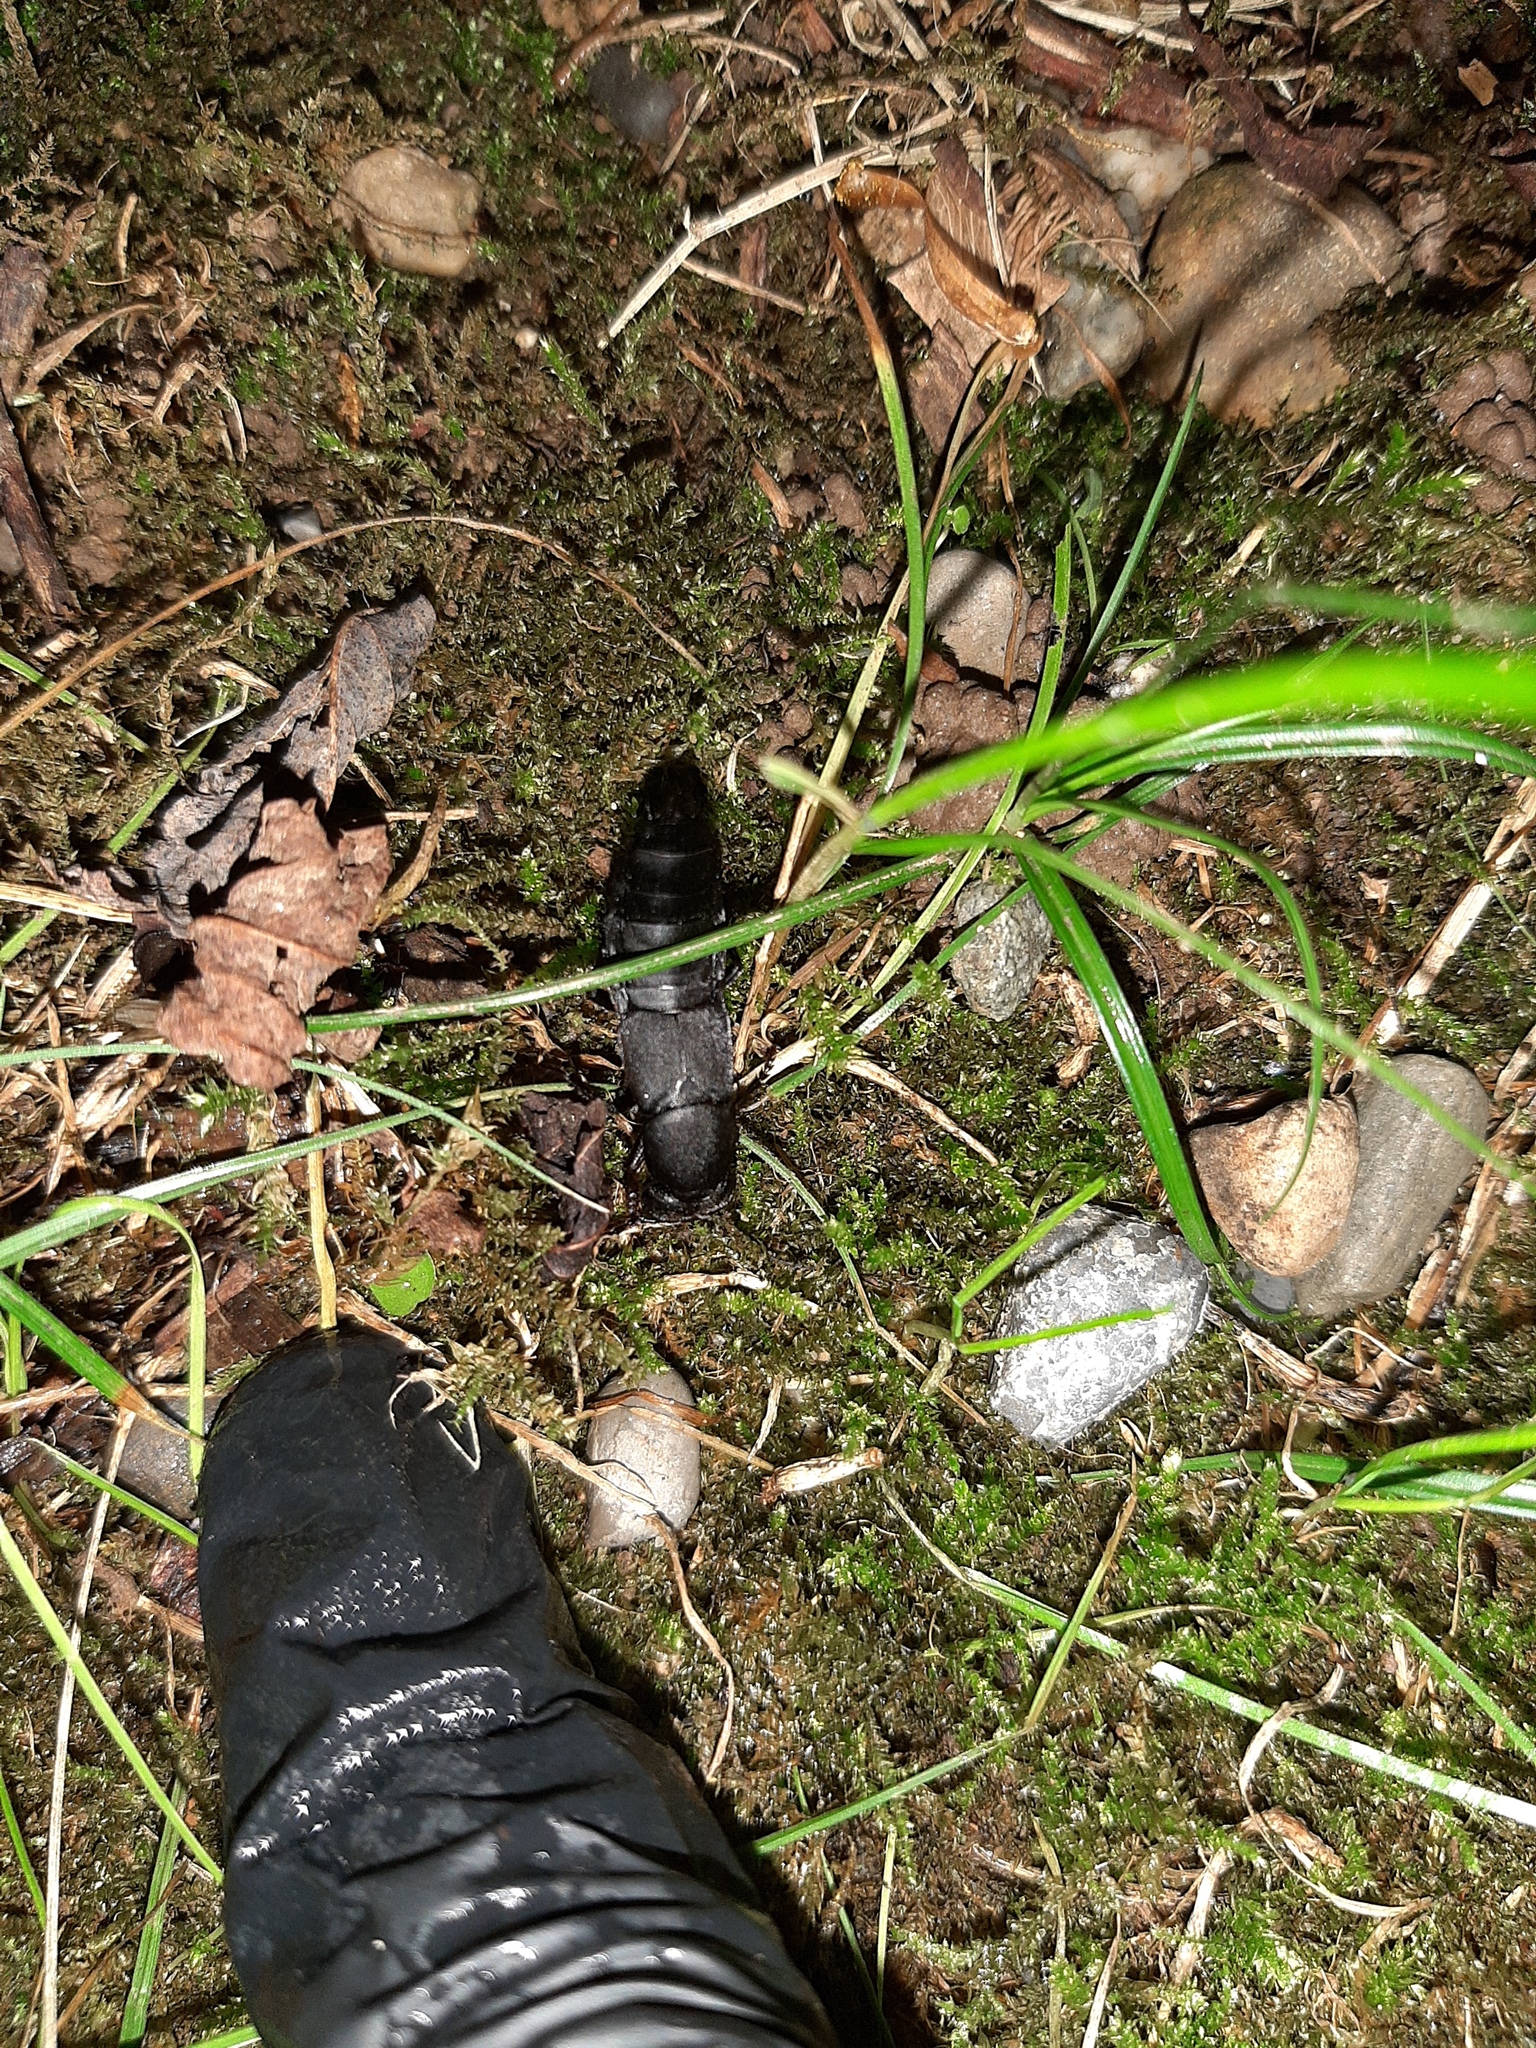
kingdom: Animalia
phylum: Arthropoda
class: Insecta
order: Coleoptera
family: Staphylinidae
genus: Ocypus
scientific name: Ocypus olens
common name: Devil's coach-horse
